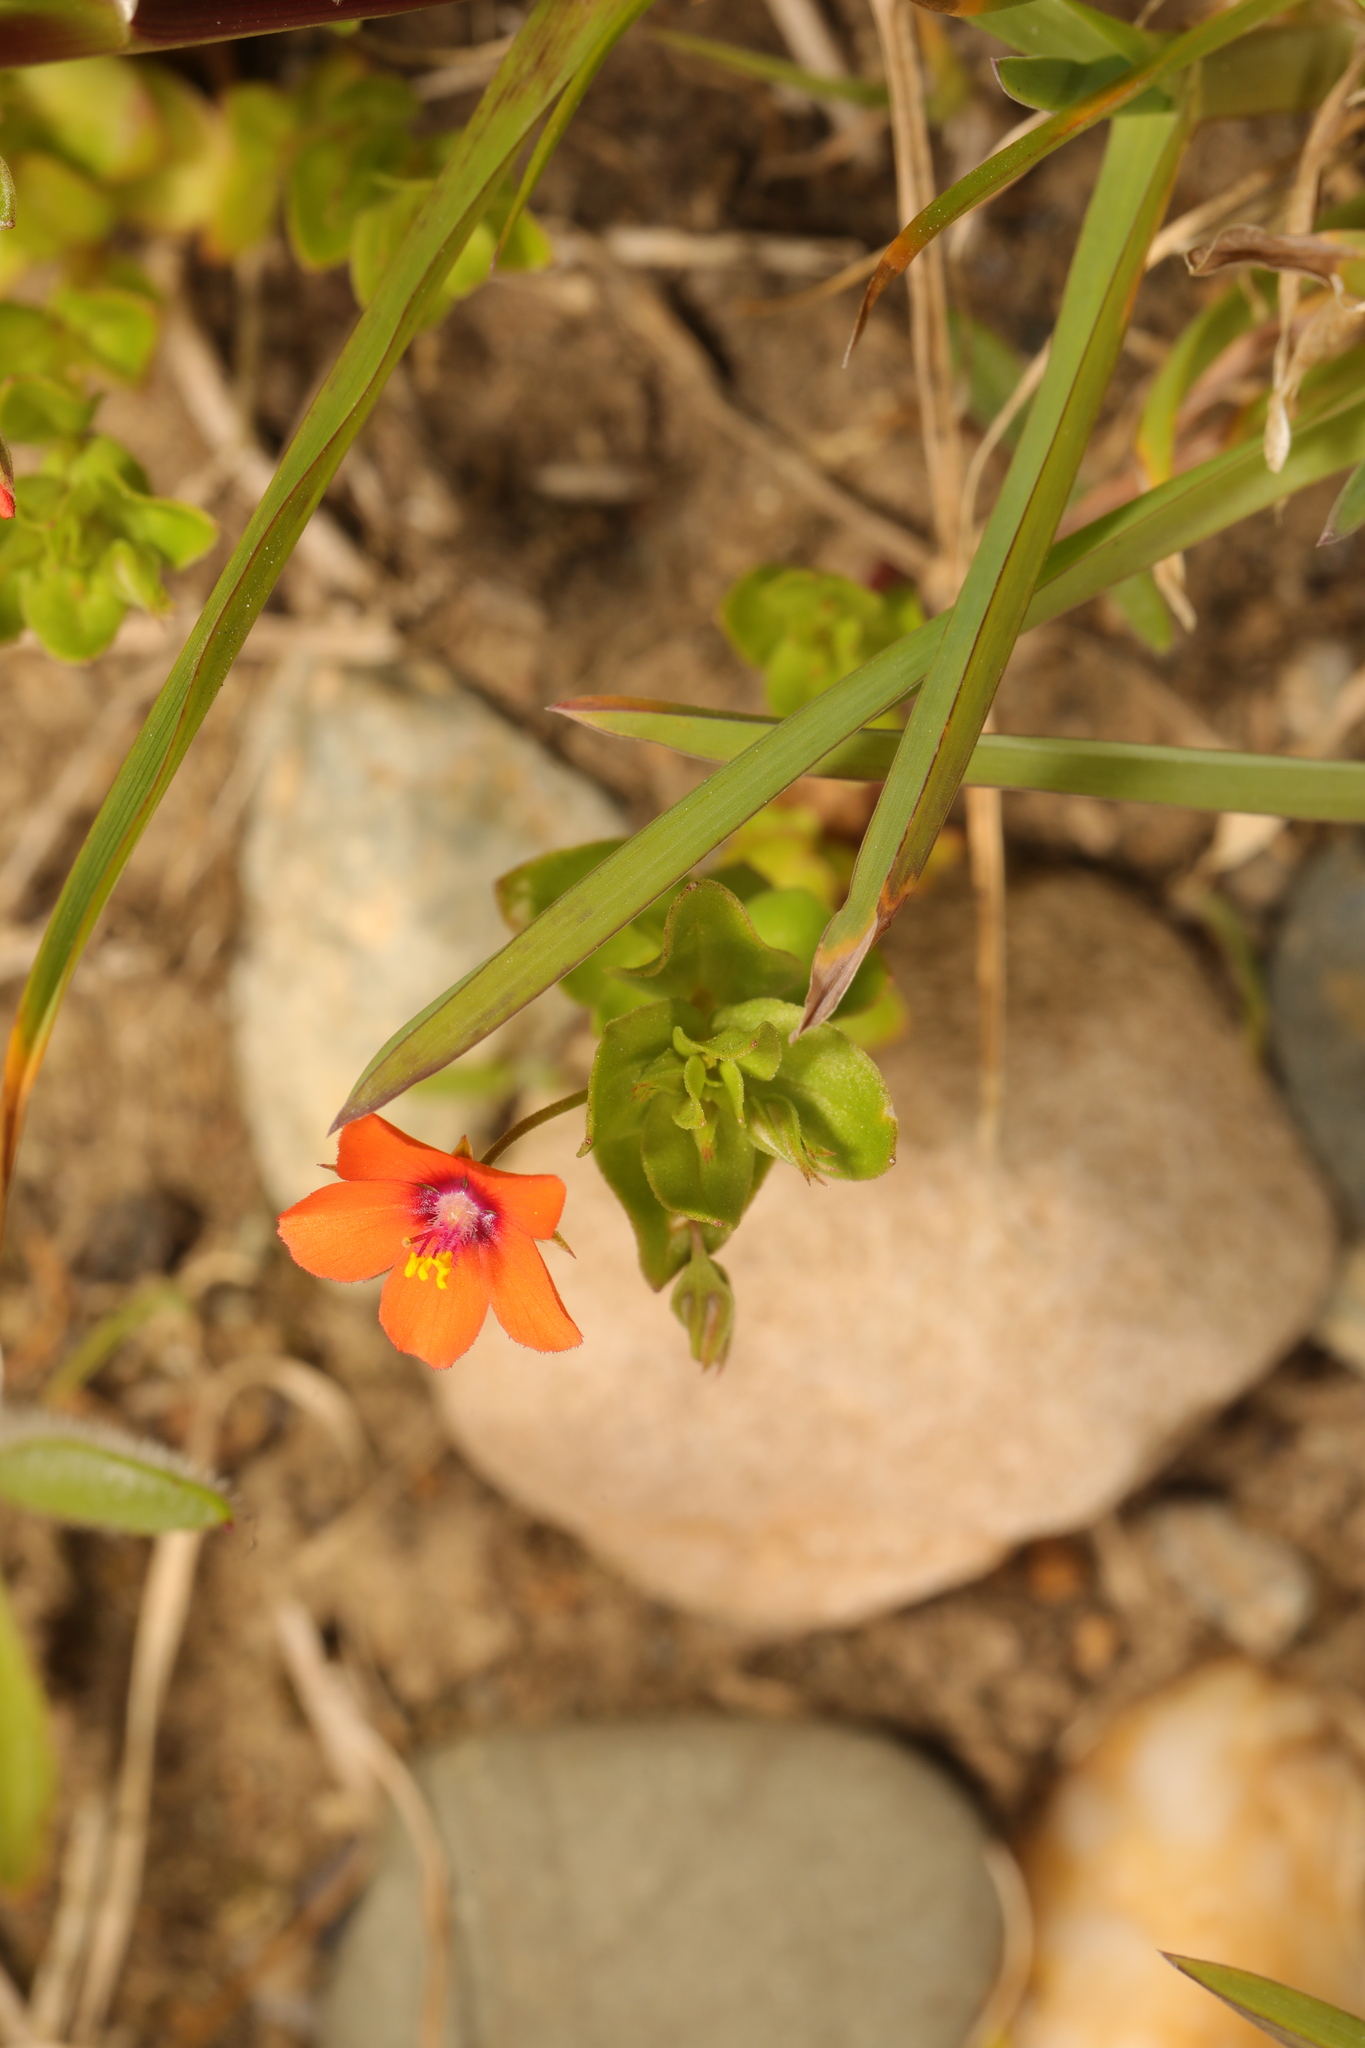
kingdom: Plantae
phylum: Tracheophyta
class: Magnoliopsida
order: Ericales
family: Primulaceae
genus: Lysimachia
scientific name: Lysimachia arvensis
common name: Scarlet pimpernel
